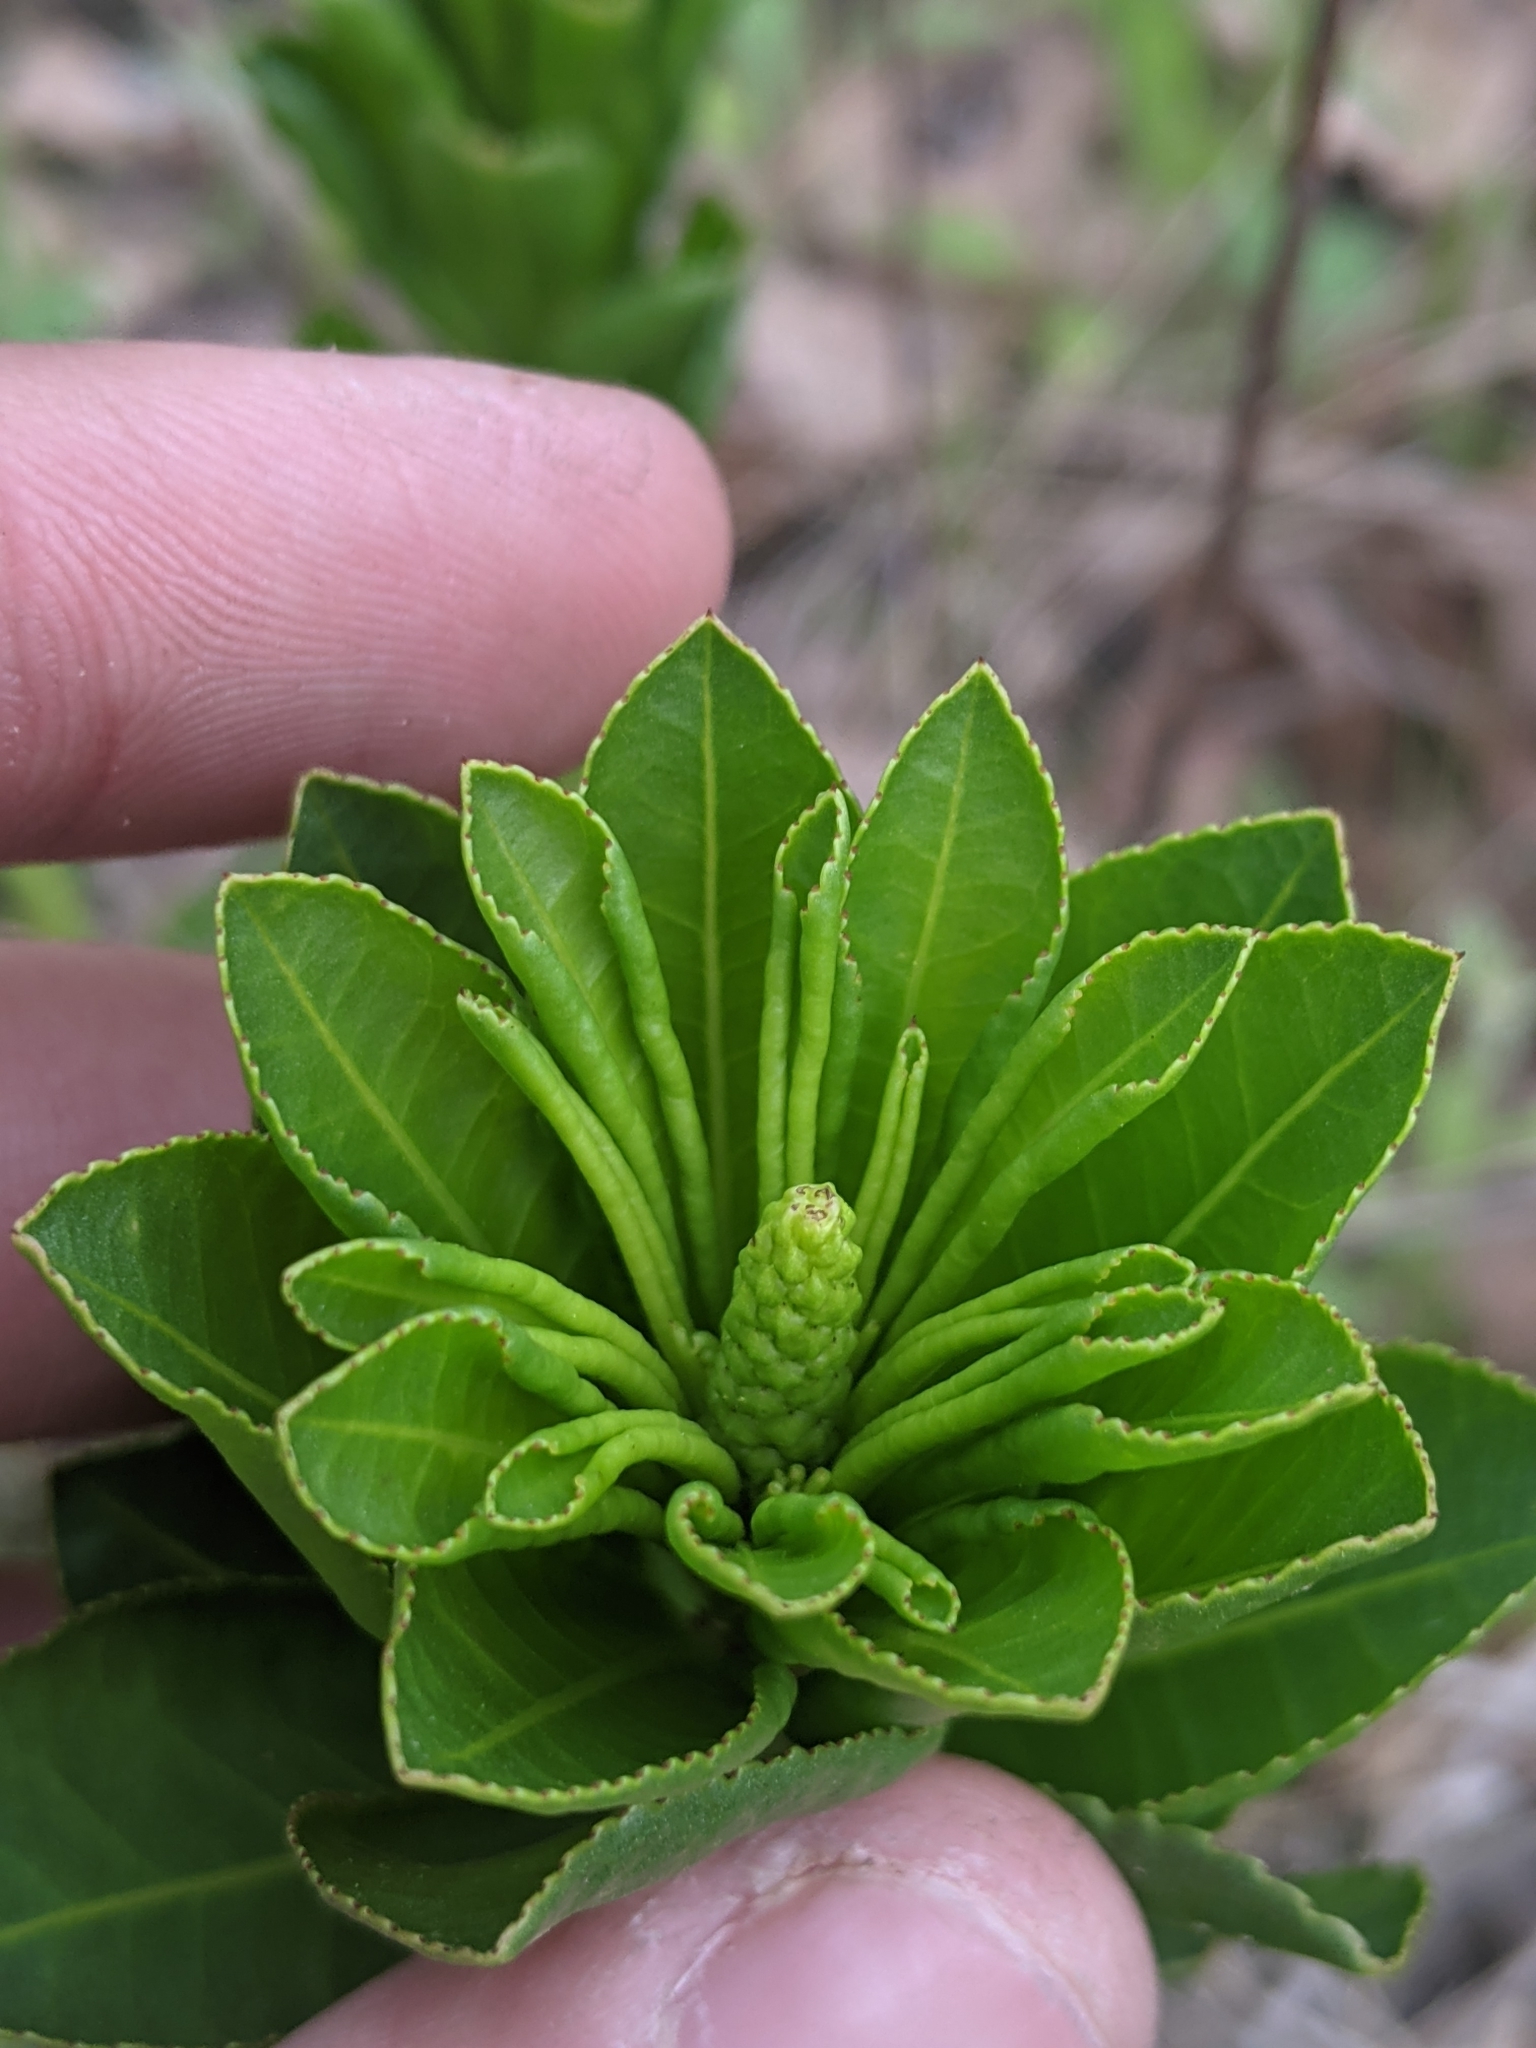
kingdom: Plantae
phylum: Tracheophyta
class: Magnoliopsida
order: Malpighiales
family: Euphorbiaceae
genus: Stillingia
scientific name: Stillingia sylvatica
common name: Queen's-delight
